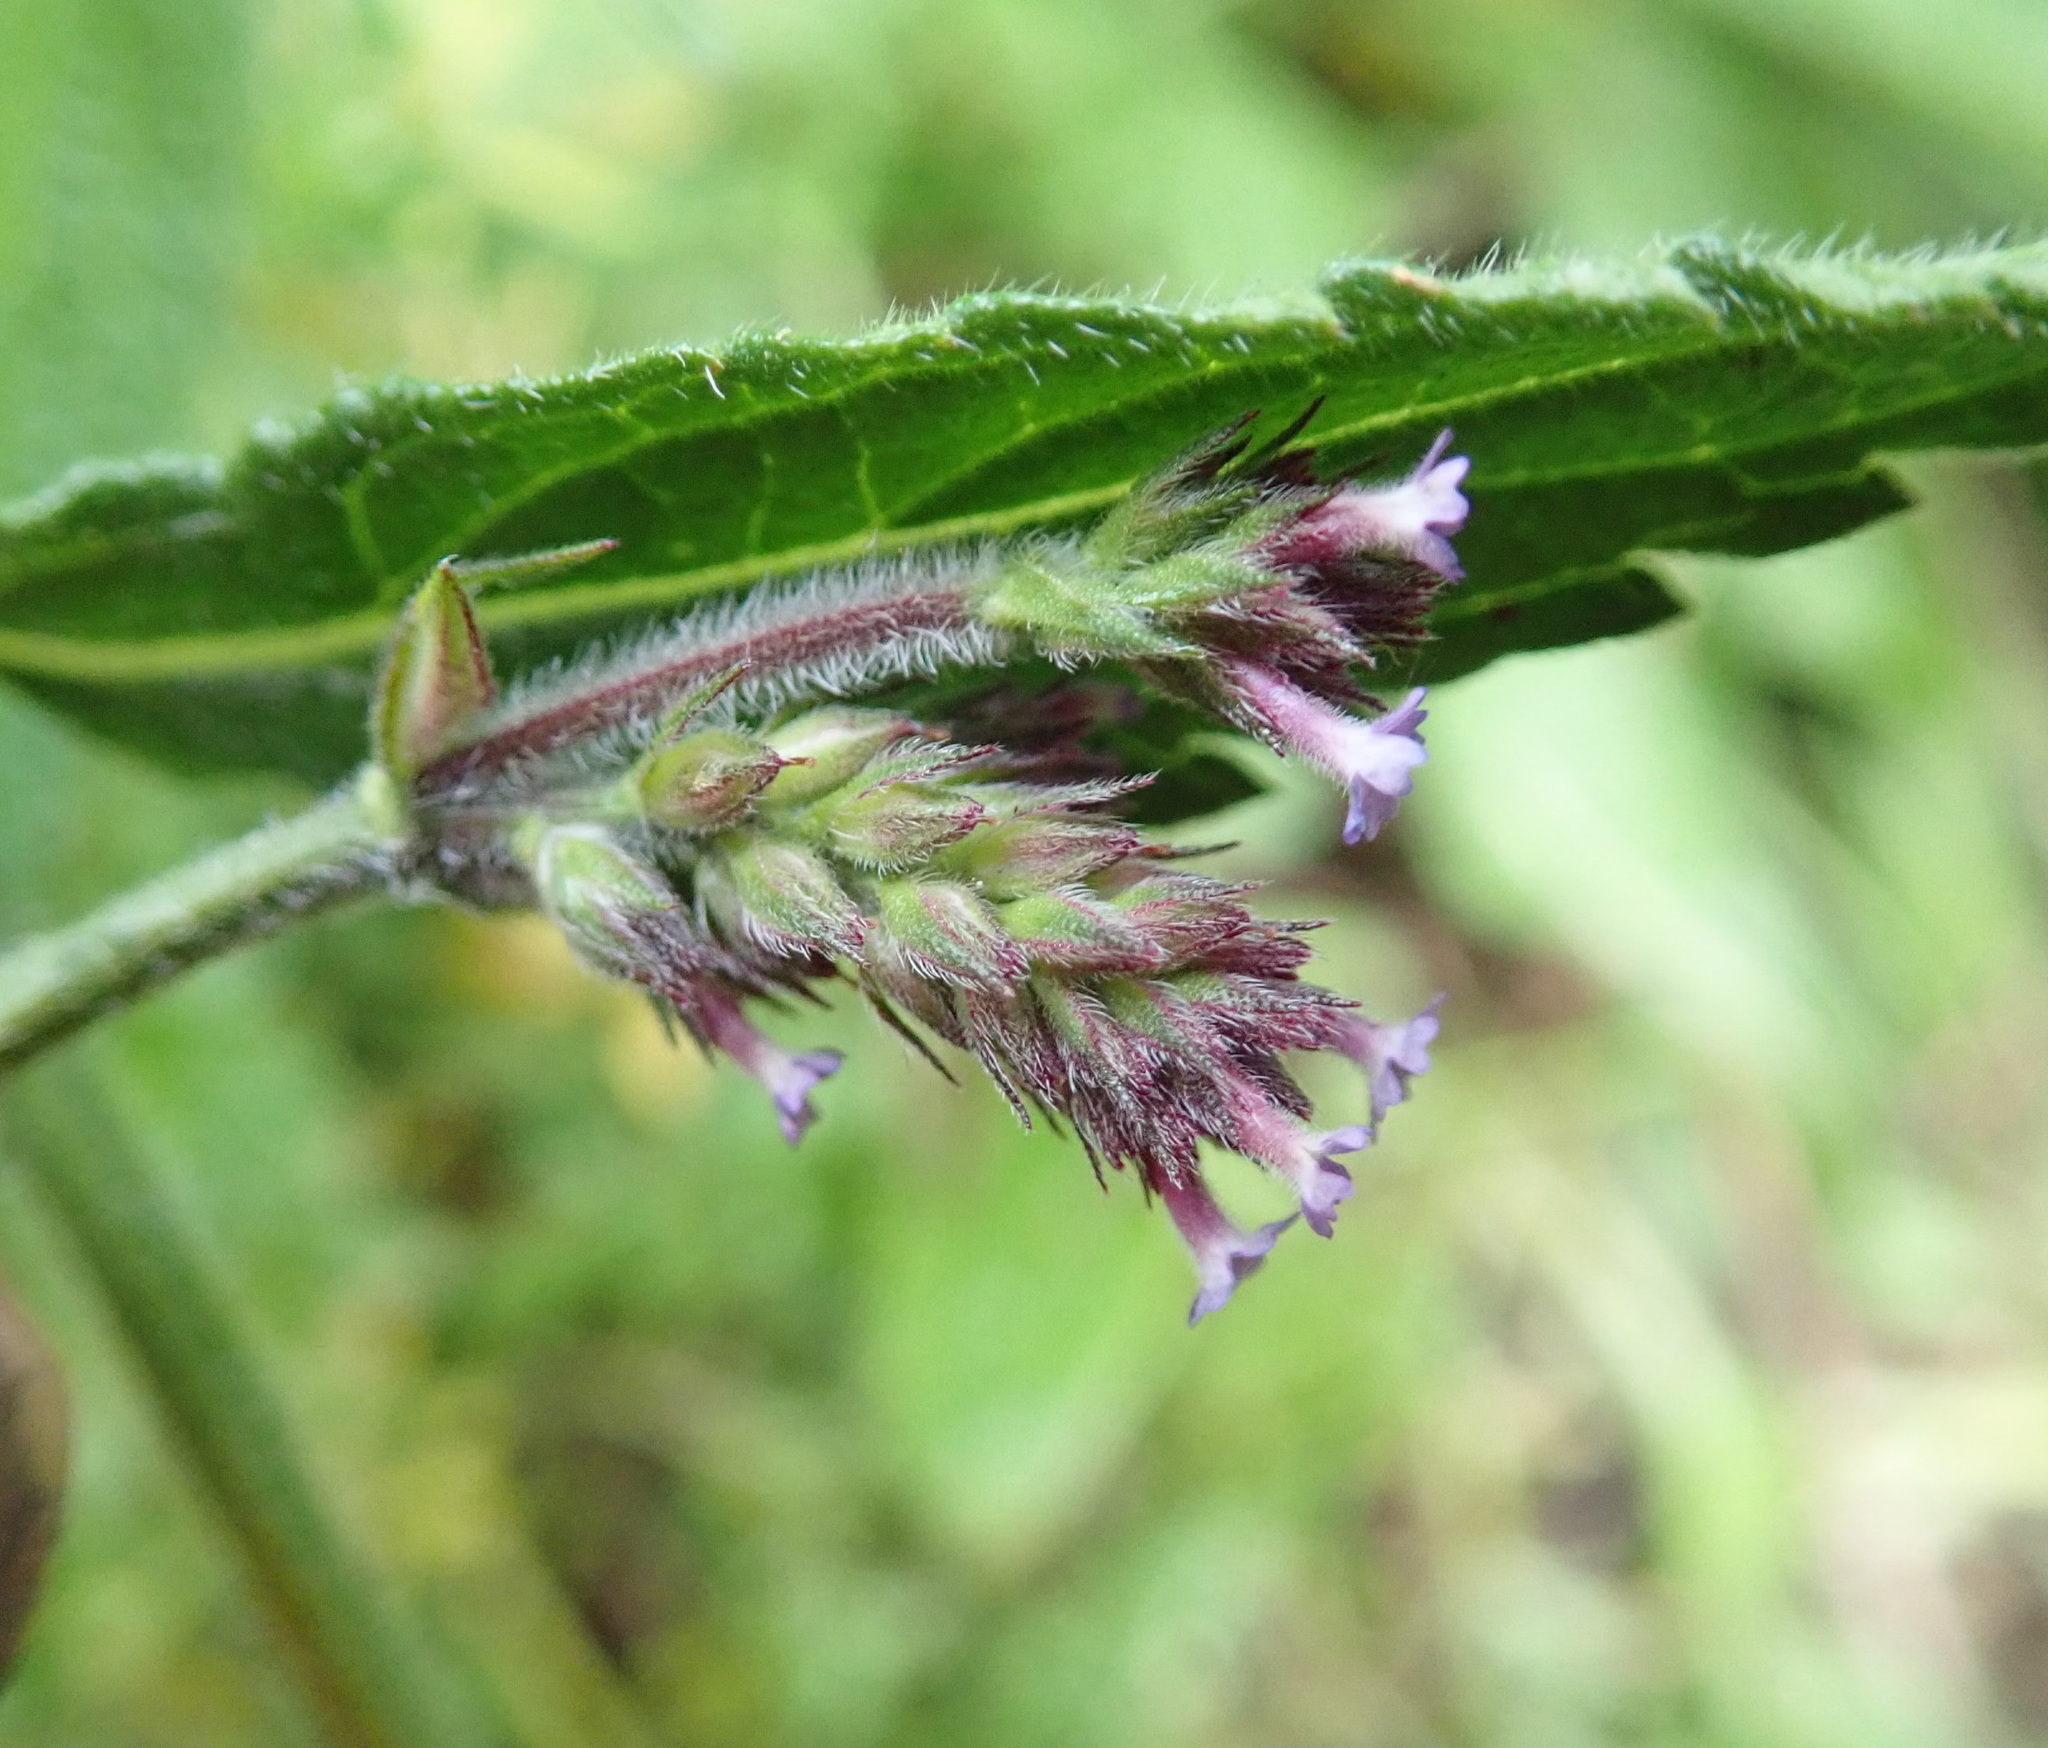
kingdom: Plantae
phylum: Tracheophyta
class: Magnoliopsida
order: Lamiales
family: Verbenaceae
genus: Verbena
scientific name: Verbena incompta
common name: Purpletop vervain
